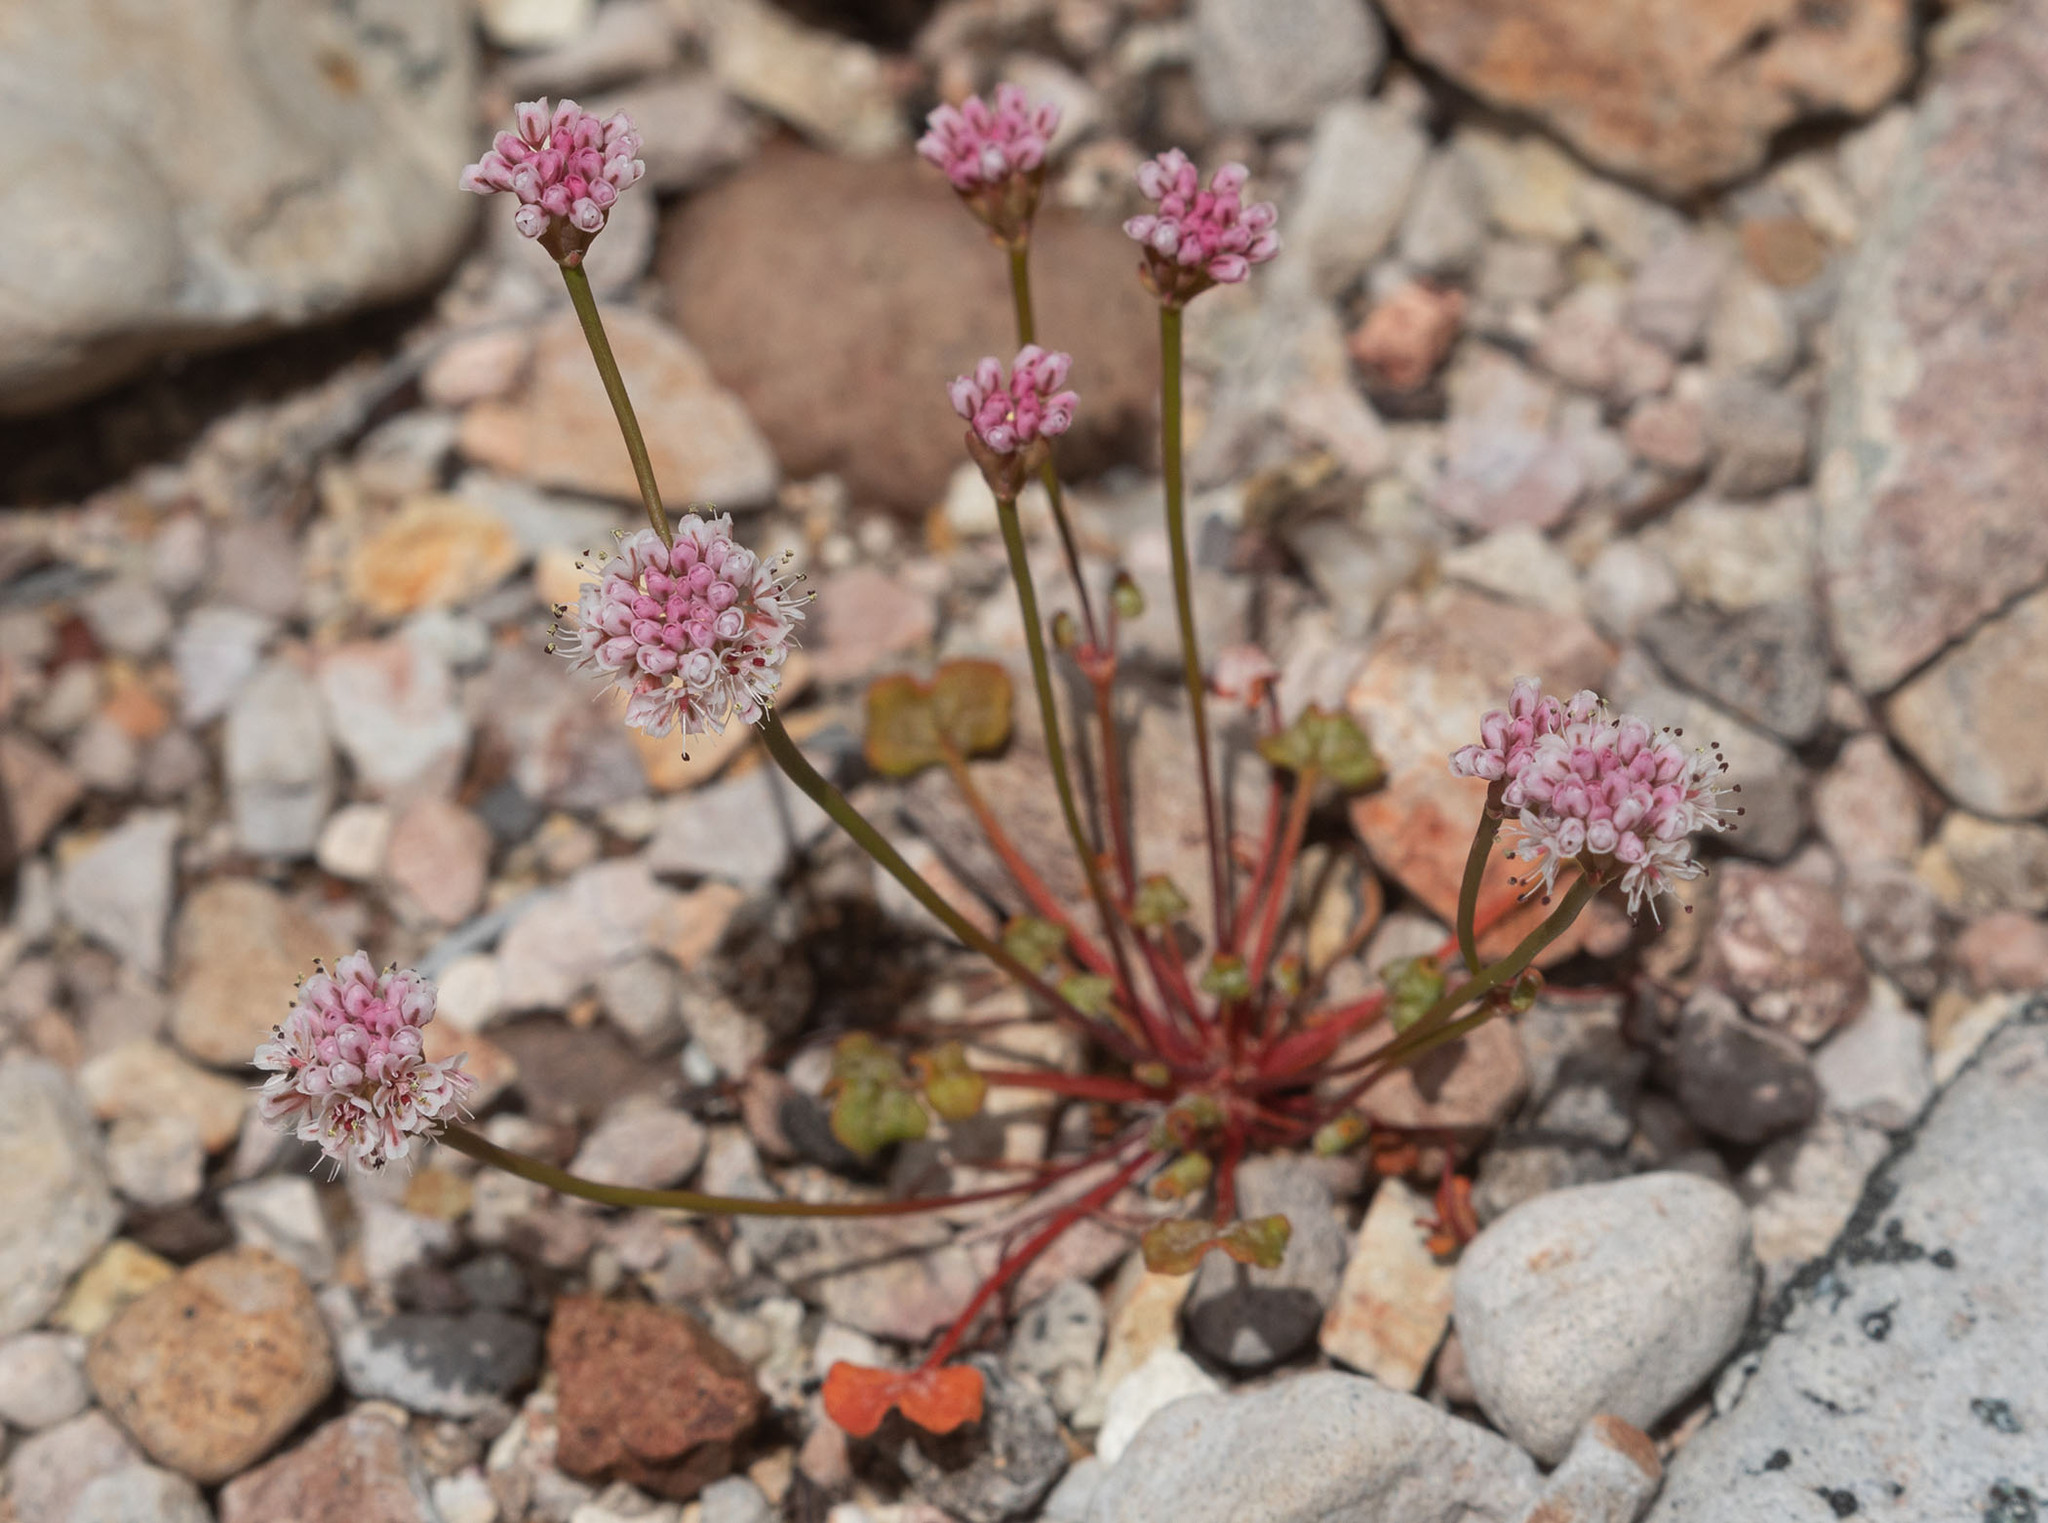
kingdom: Plantae
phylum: Tracheophyta
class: Magnoliopsida
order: Caryophyllales
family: Polygonaceae
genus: Eriogonum
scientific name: Eriogonum nortonii
